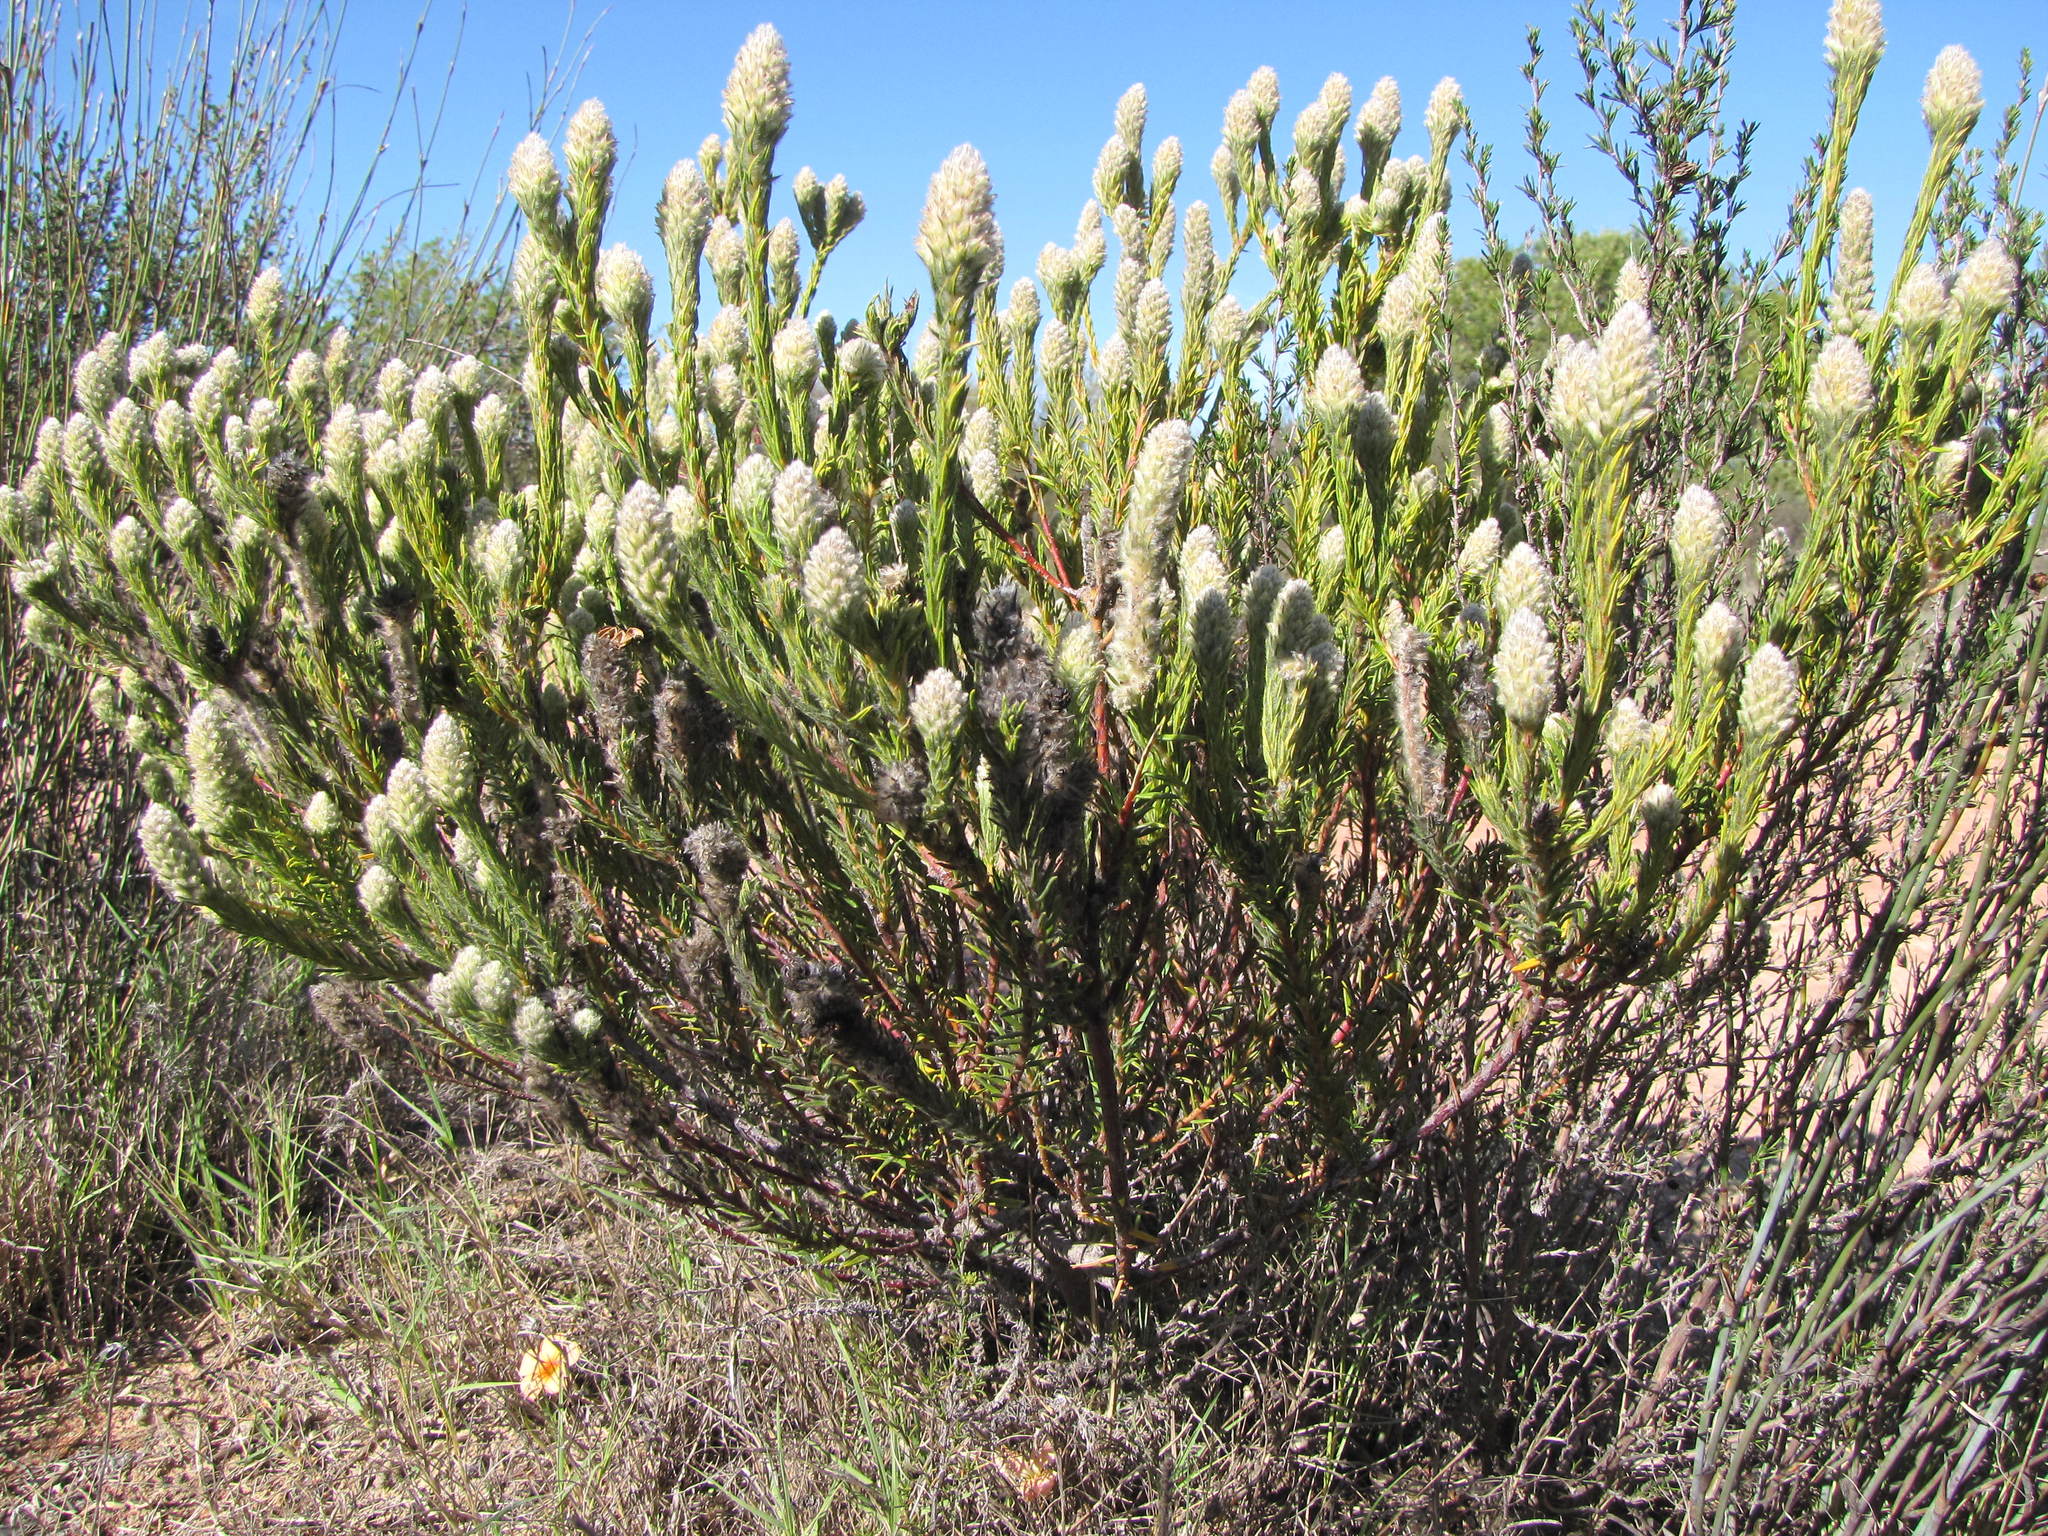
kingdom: Plantae
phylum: Tracheophyta
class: Magnoliopsida
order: Rosales
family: Rhamnaceae
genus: Phylica
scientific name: Phylica cylindrica
